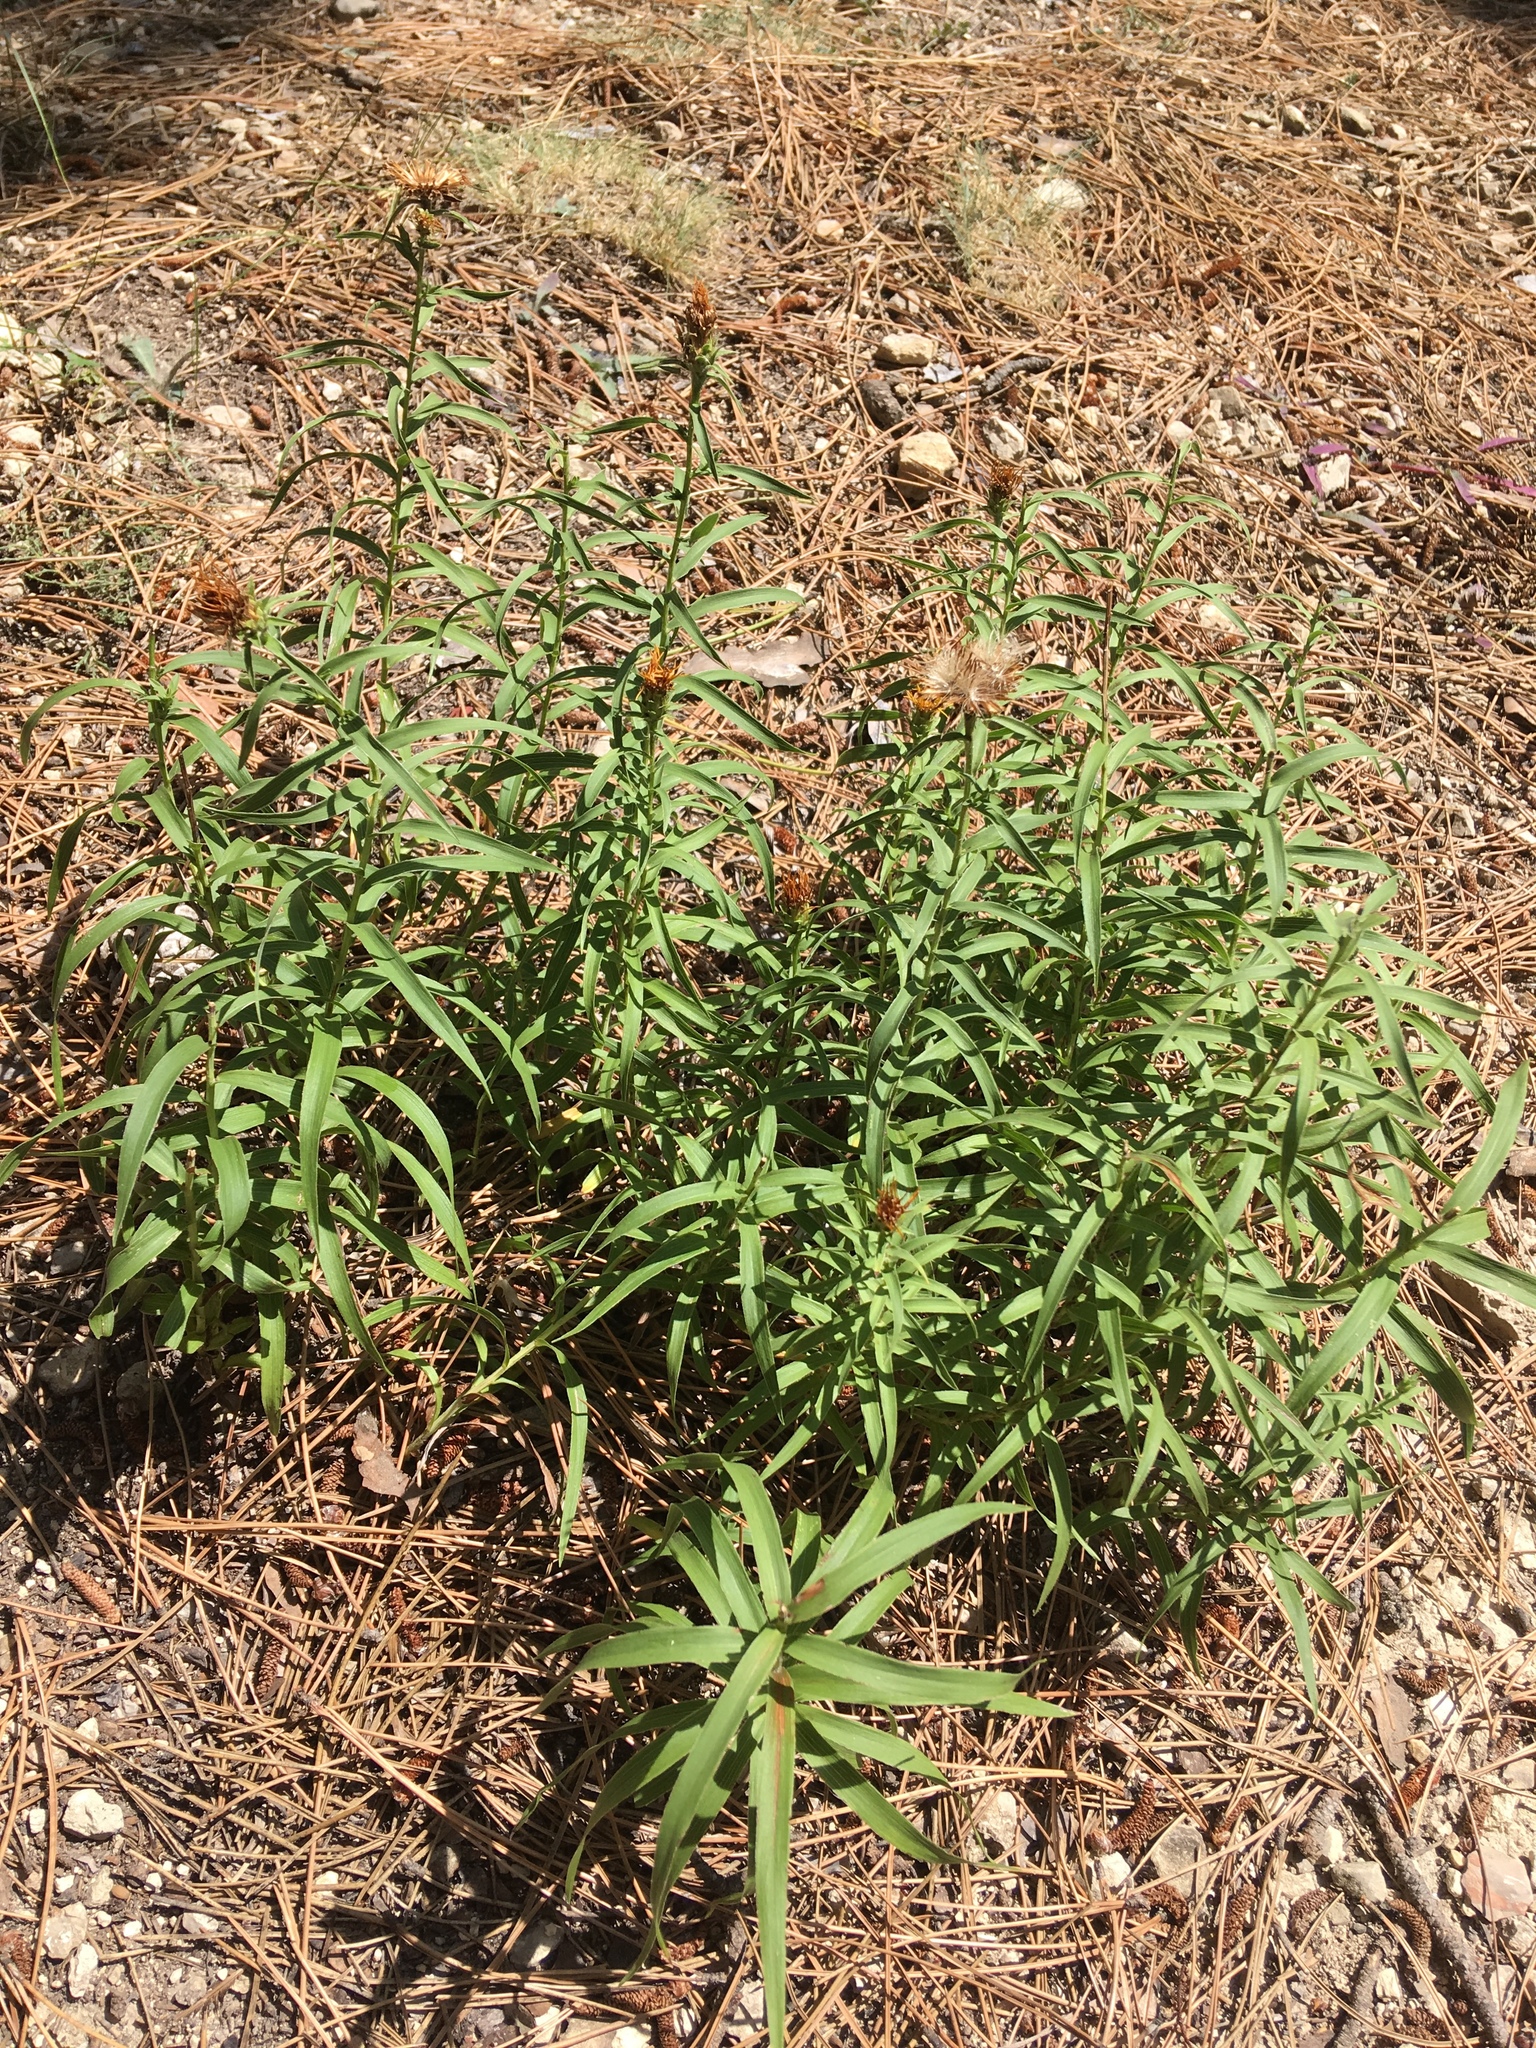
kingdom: Plantae
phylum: Tracheophyta
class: Magnoliopsida
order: Asterales
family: Asteraceae
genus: Pentanema
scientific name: Pentanema ensifolium
